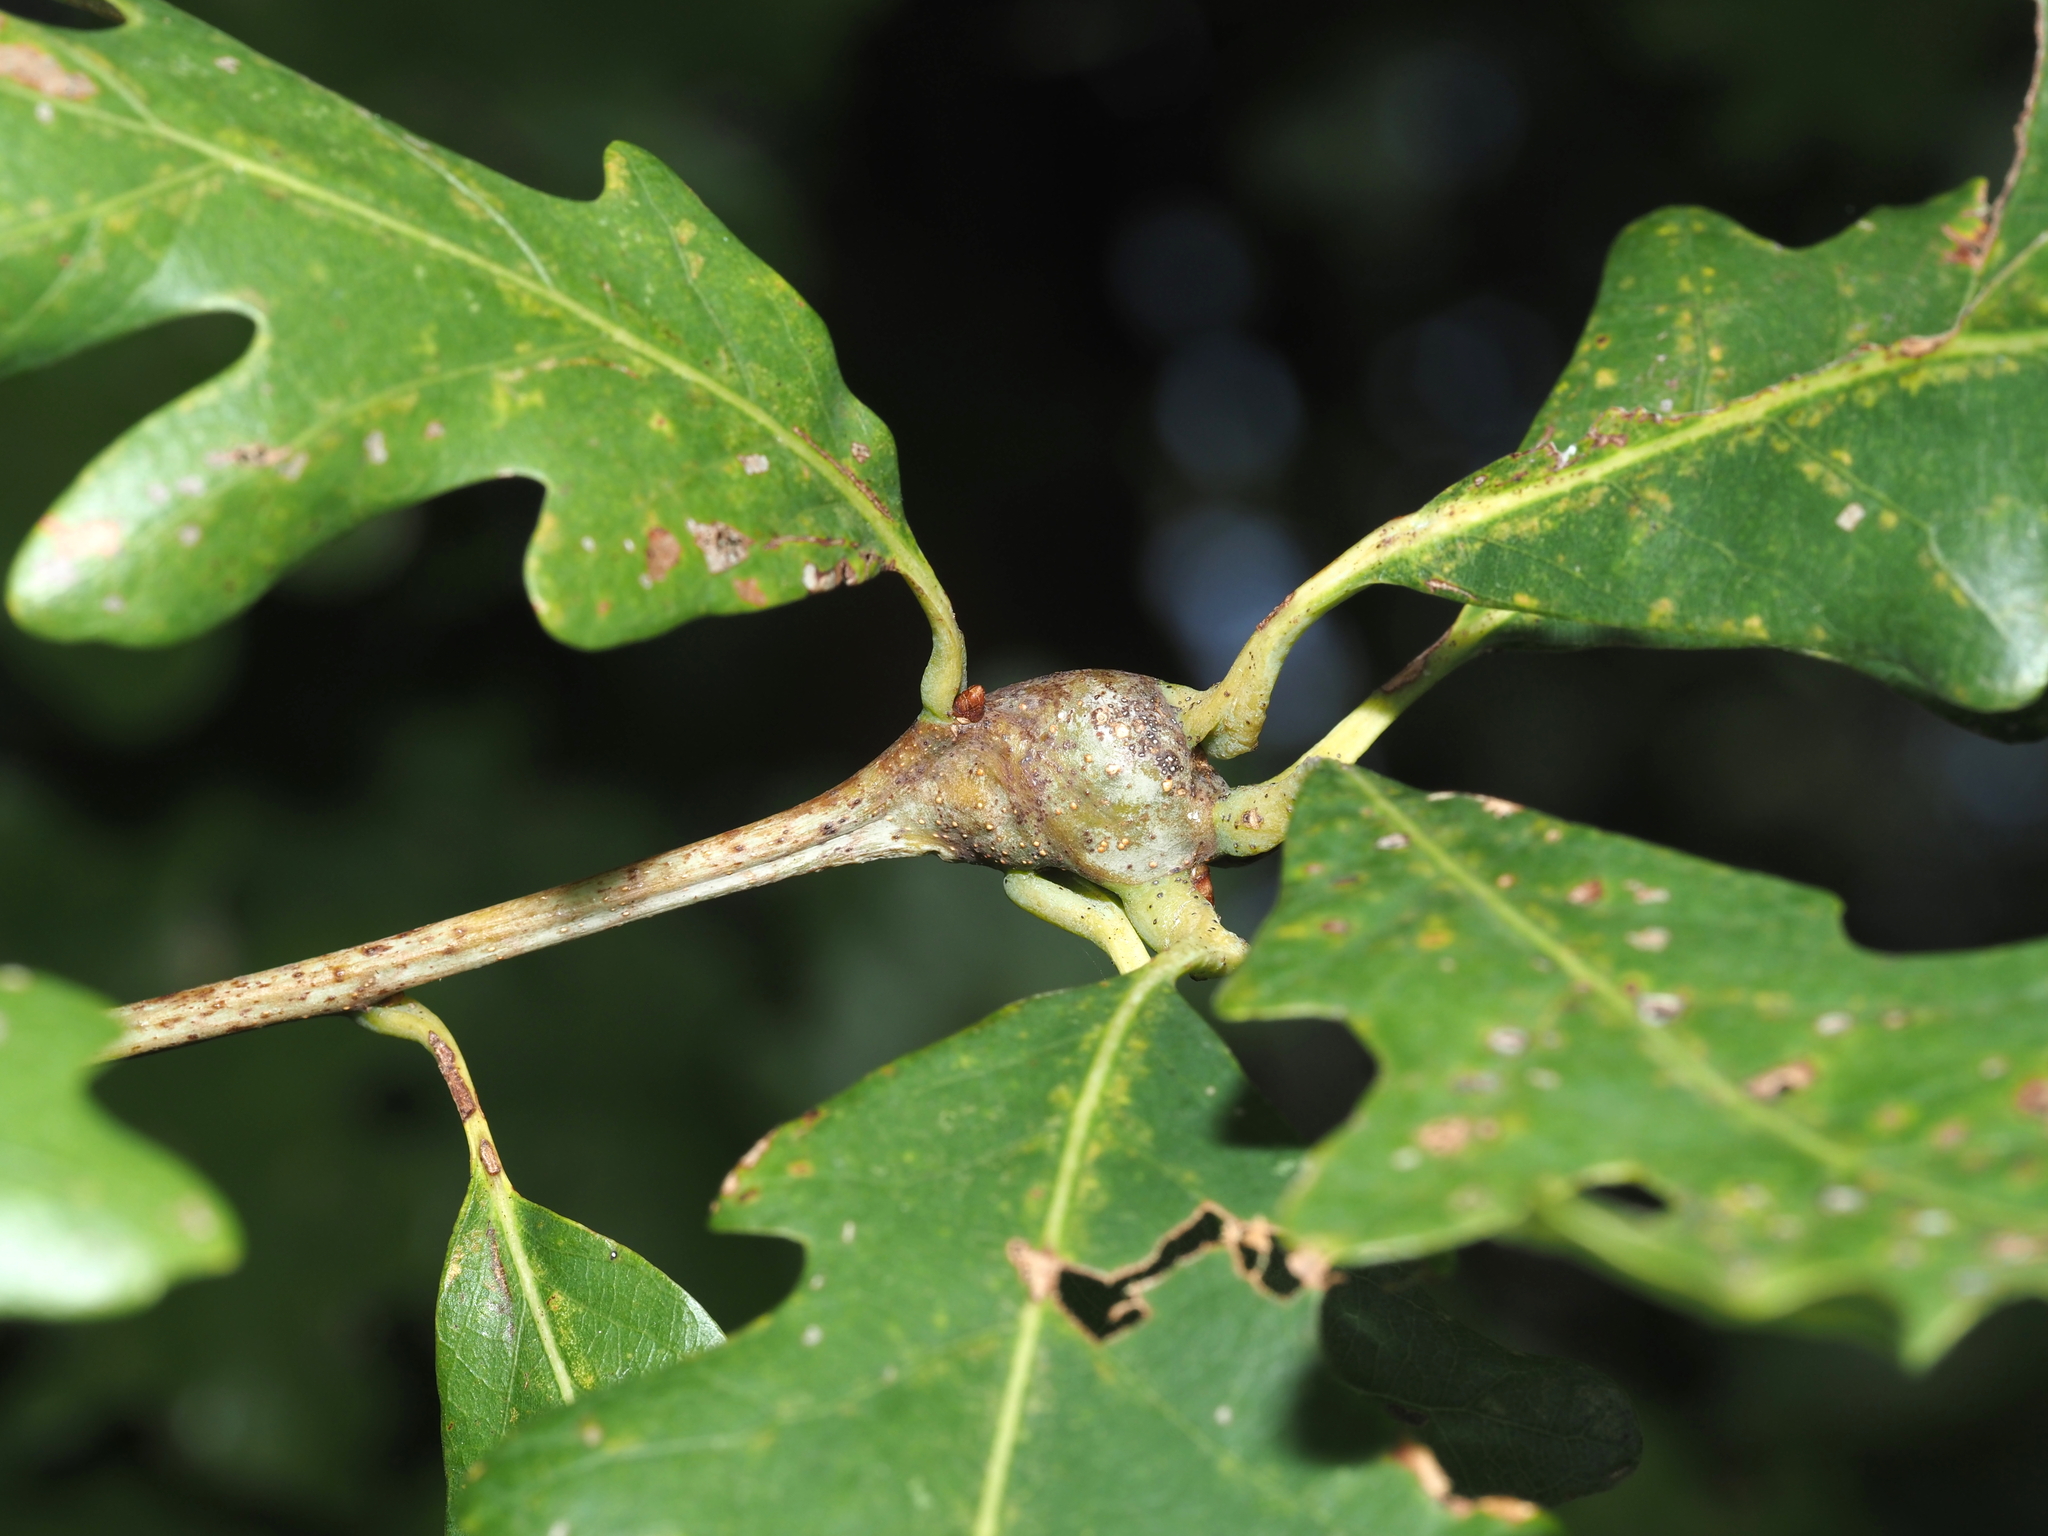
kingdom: Animalia
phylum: Arthropoda
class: Insecta
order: Hymenoptera
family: Cynipidae
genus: Callirhytis
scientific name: Callirhytis clavula
